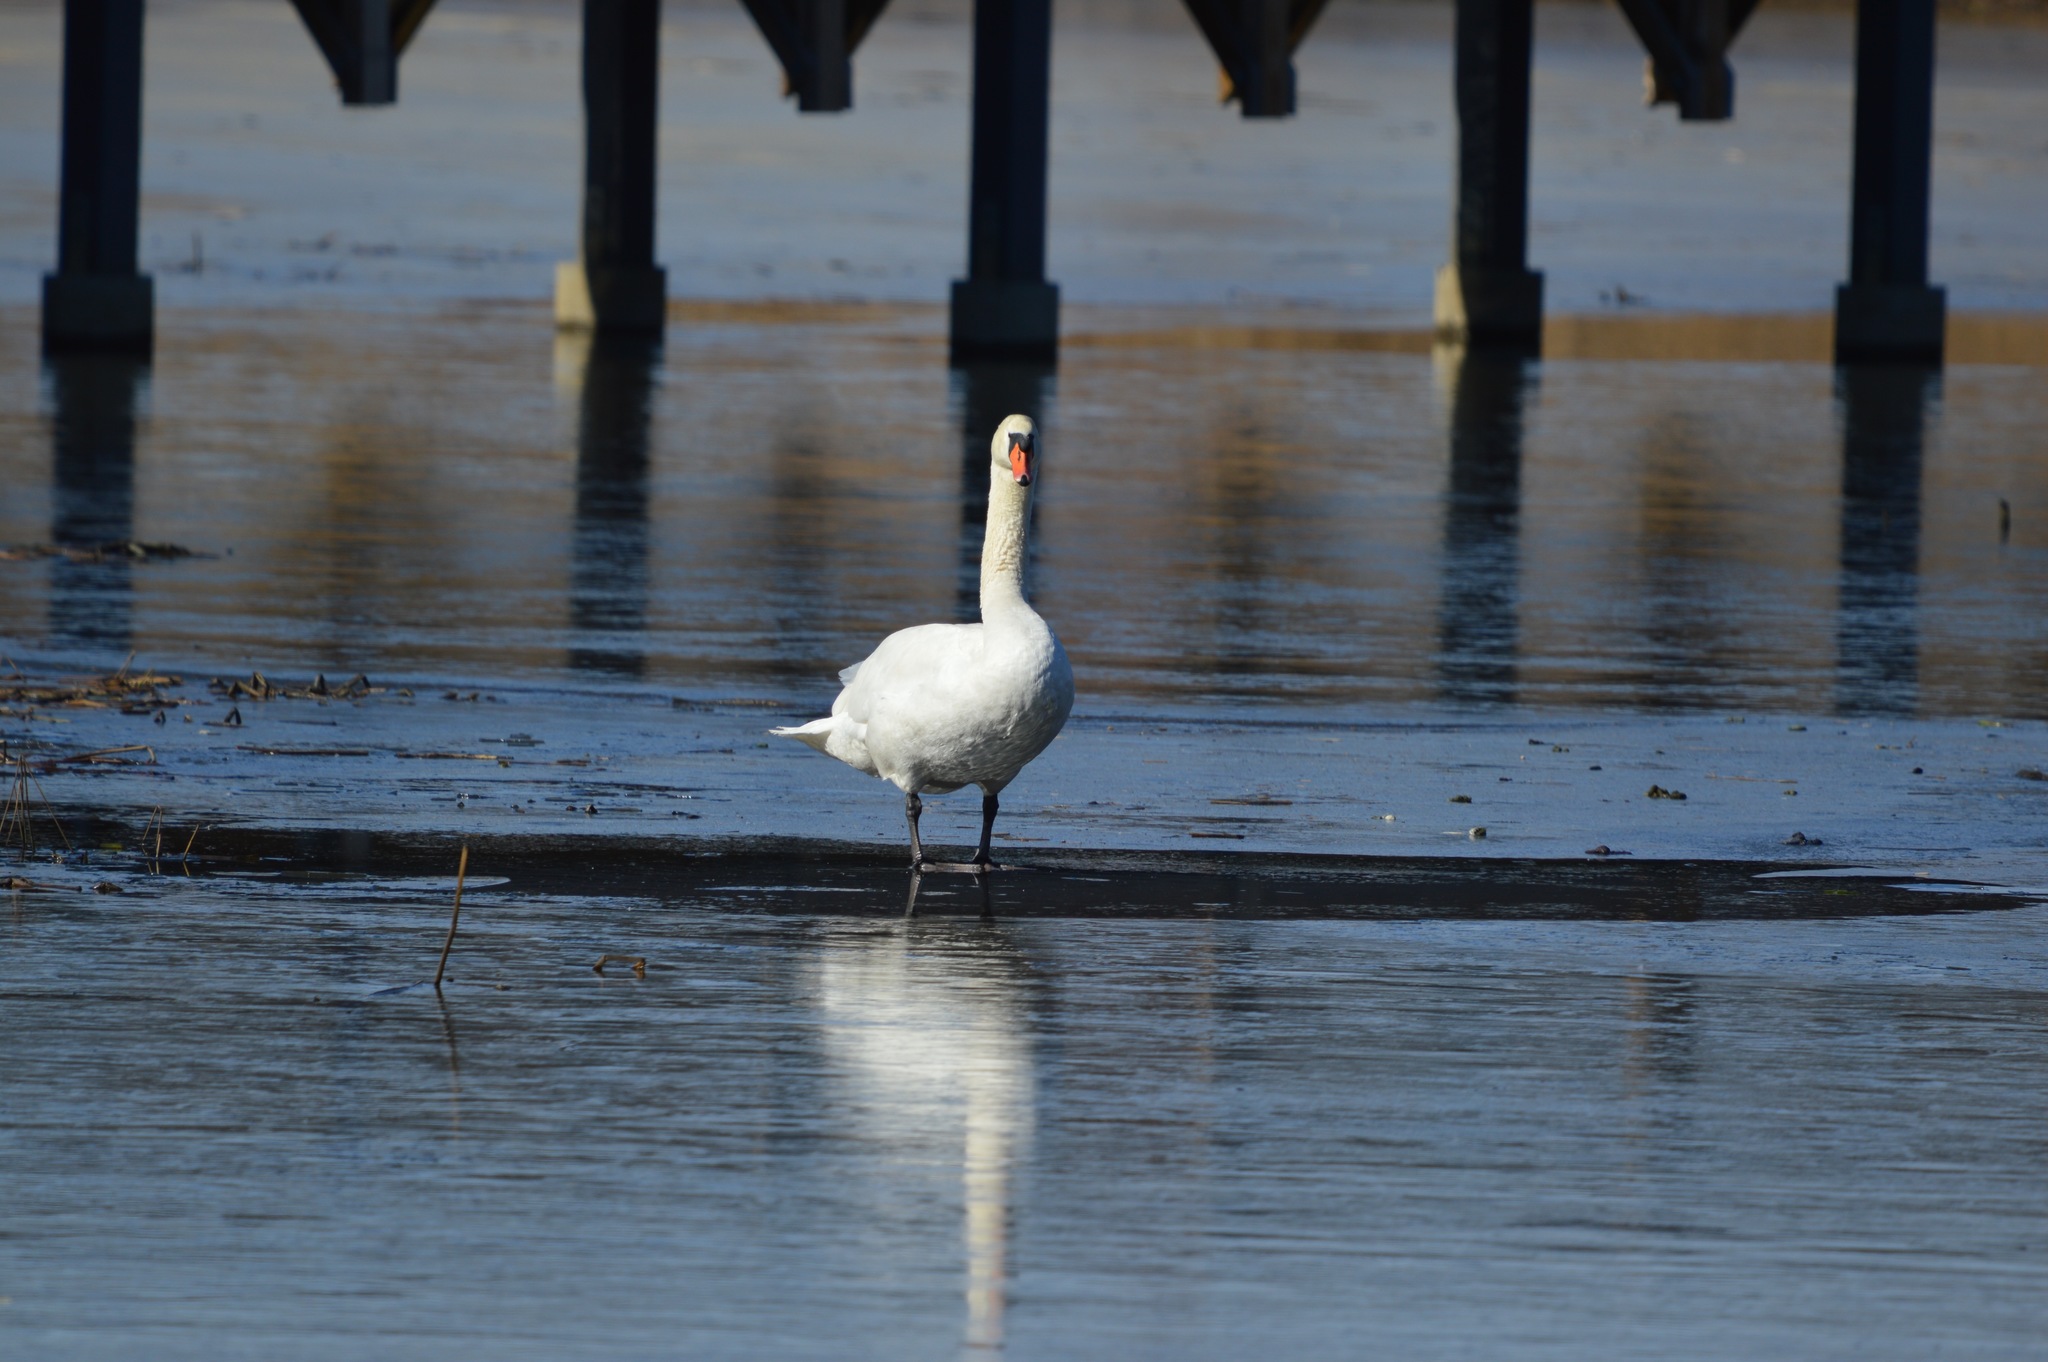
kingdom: Animalia
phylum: Chordata
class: Aves
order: Anseriformes
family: Anatidae
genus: Cygnus
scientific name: Cygnus olor
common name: Mute swan
